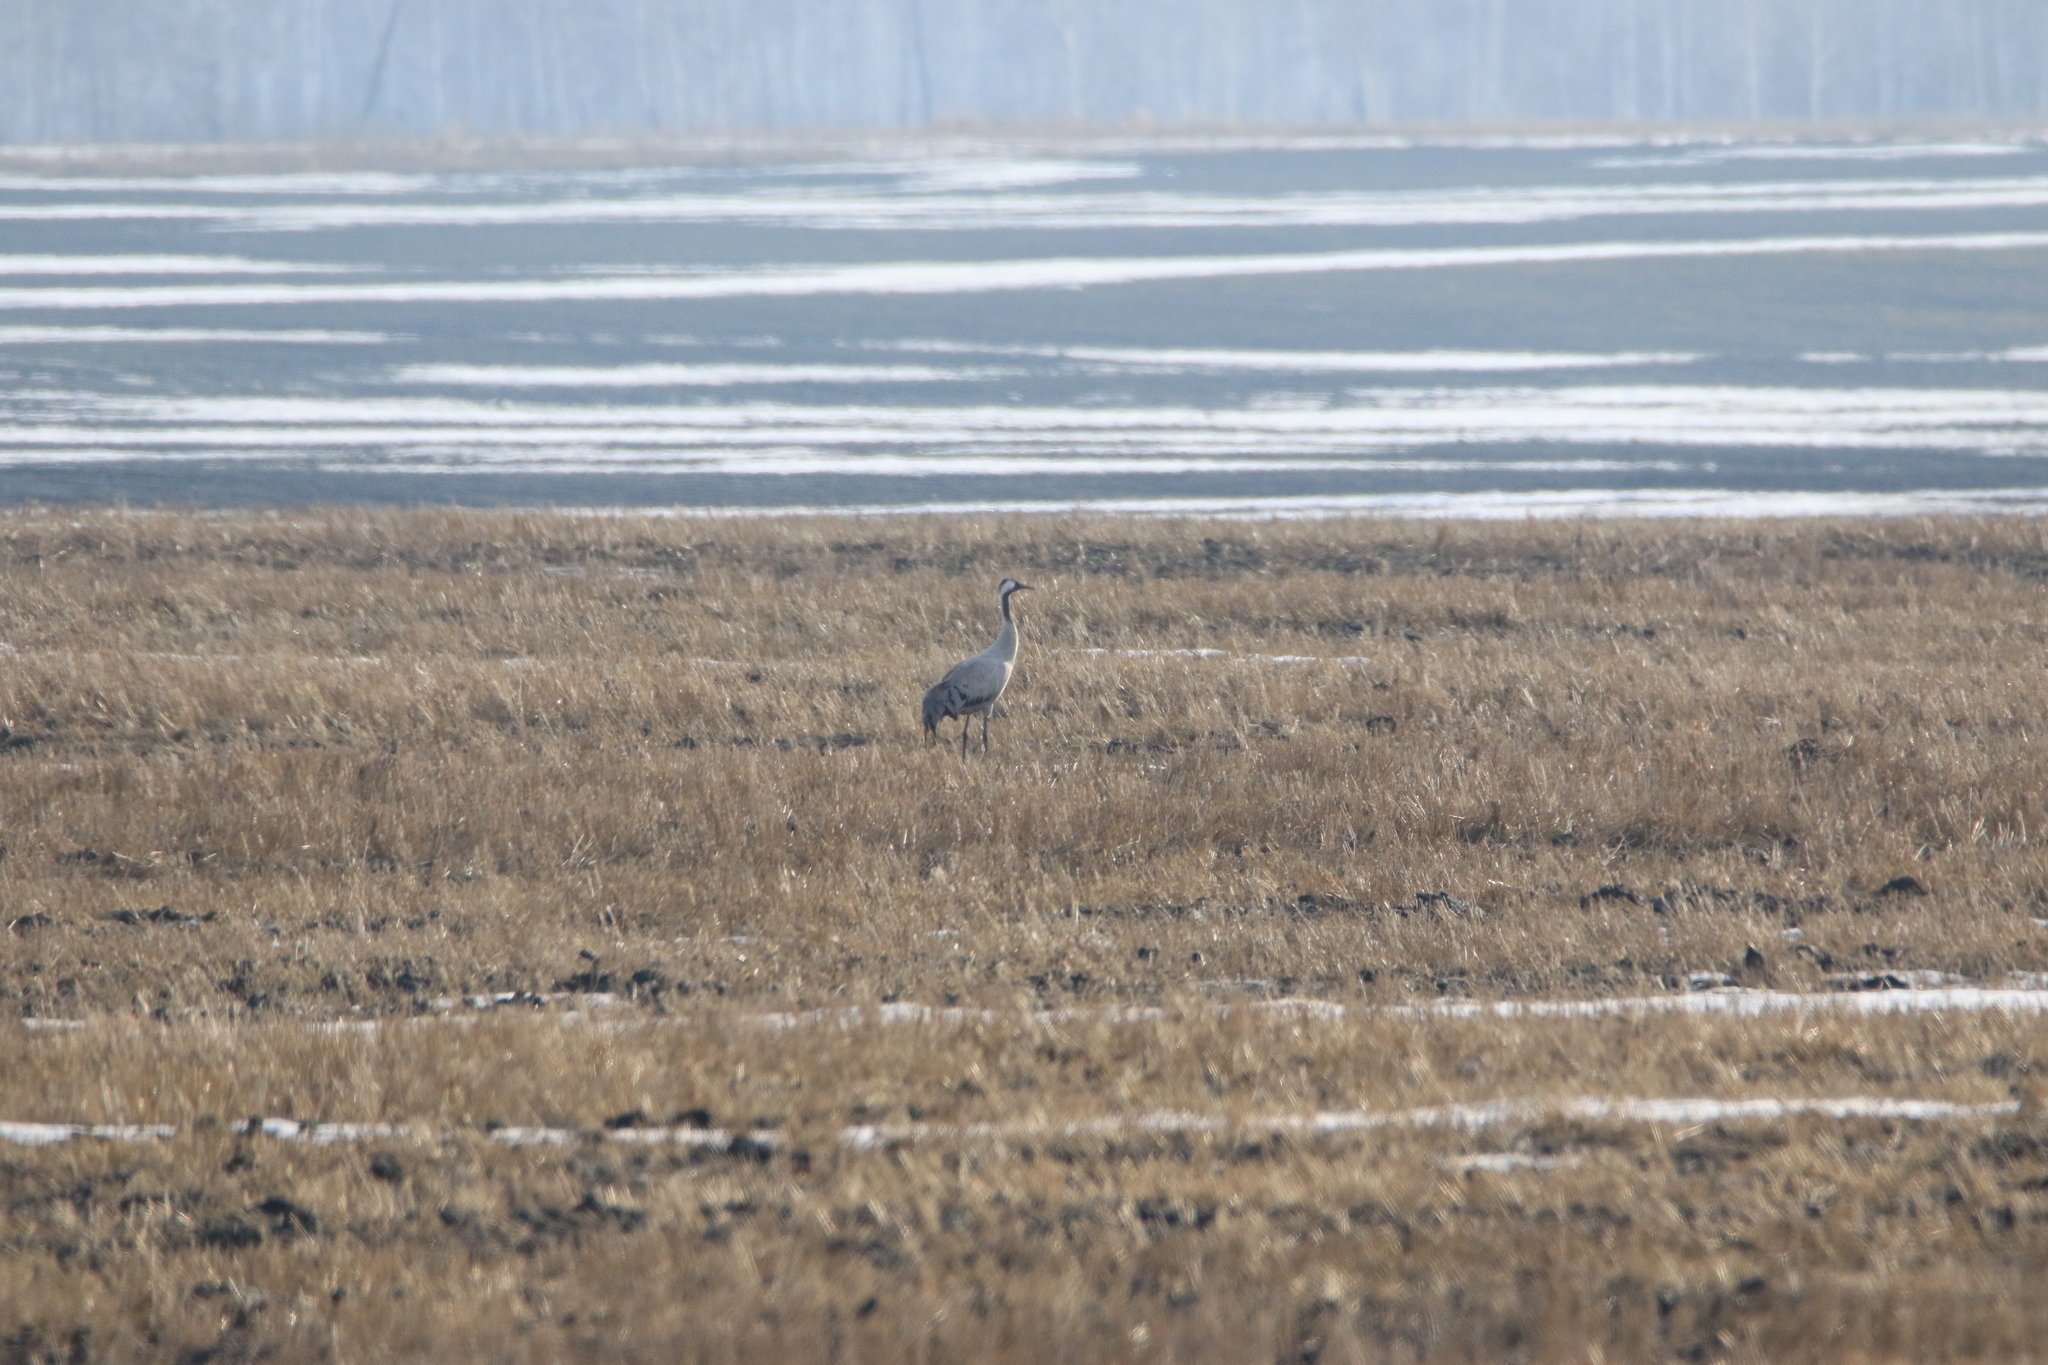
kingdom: Animalia
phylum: Chordata
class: Aves
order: Gruiformes
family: Gruidae
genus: Grus
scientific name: Grus grus
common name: Common crane
